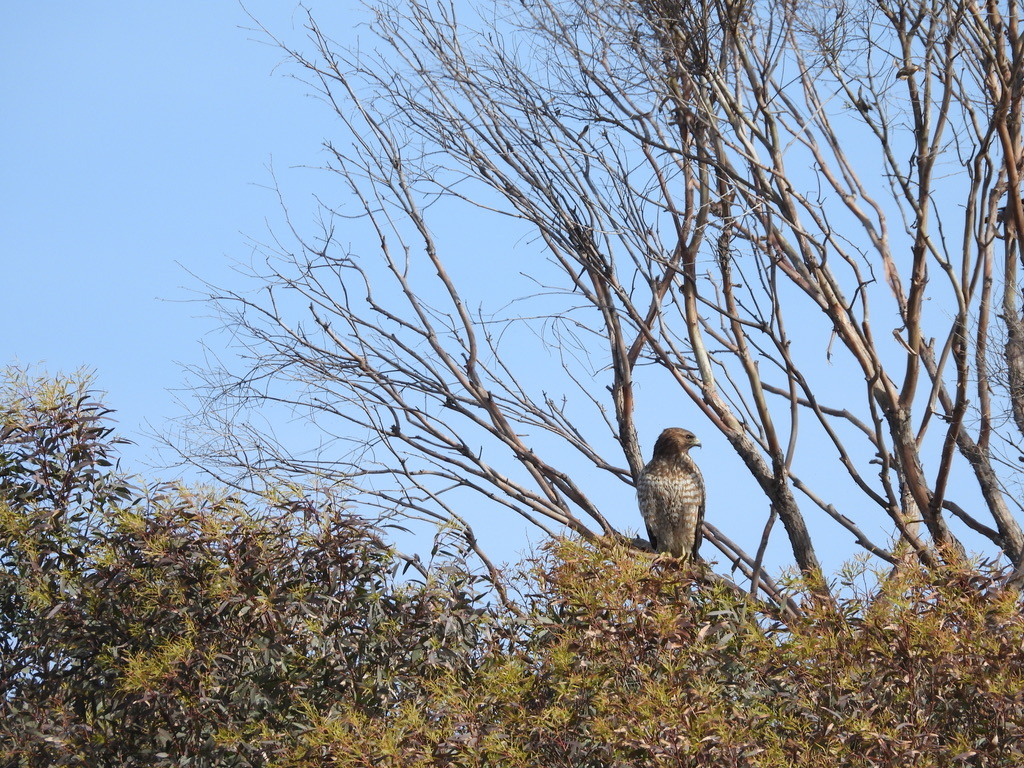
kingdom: Animalia
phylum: Chordata
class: Aves
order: Accipitriformes
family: Accipitridae
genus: Buteo
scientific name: Buteo lineatus
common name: Red-shouldered hawk
